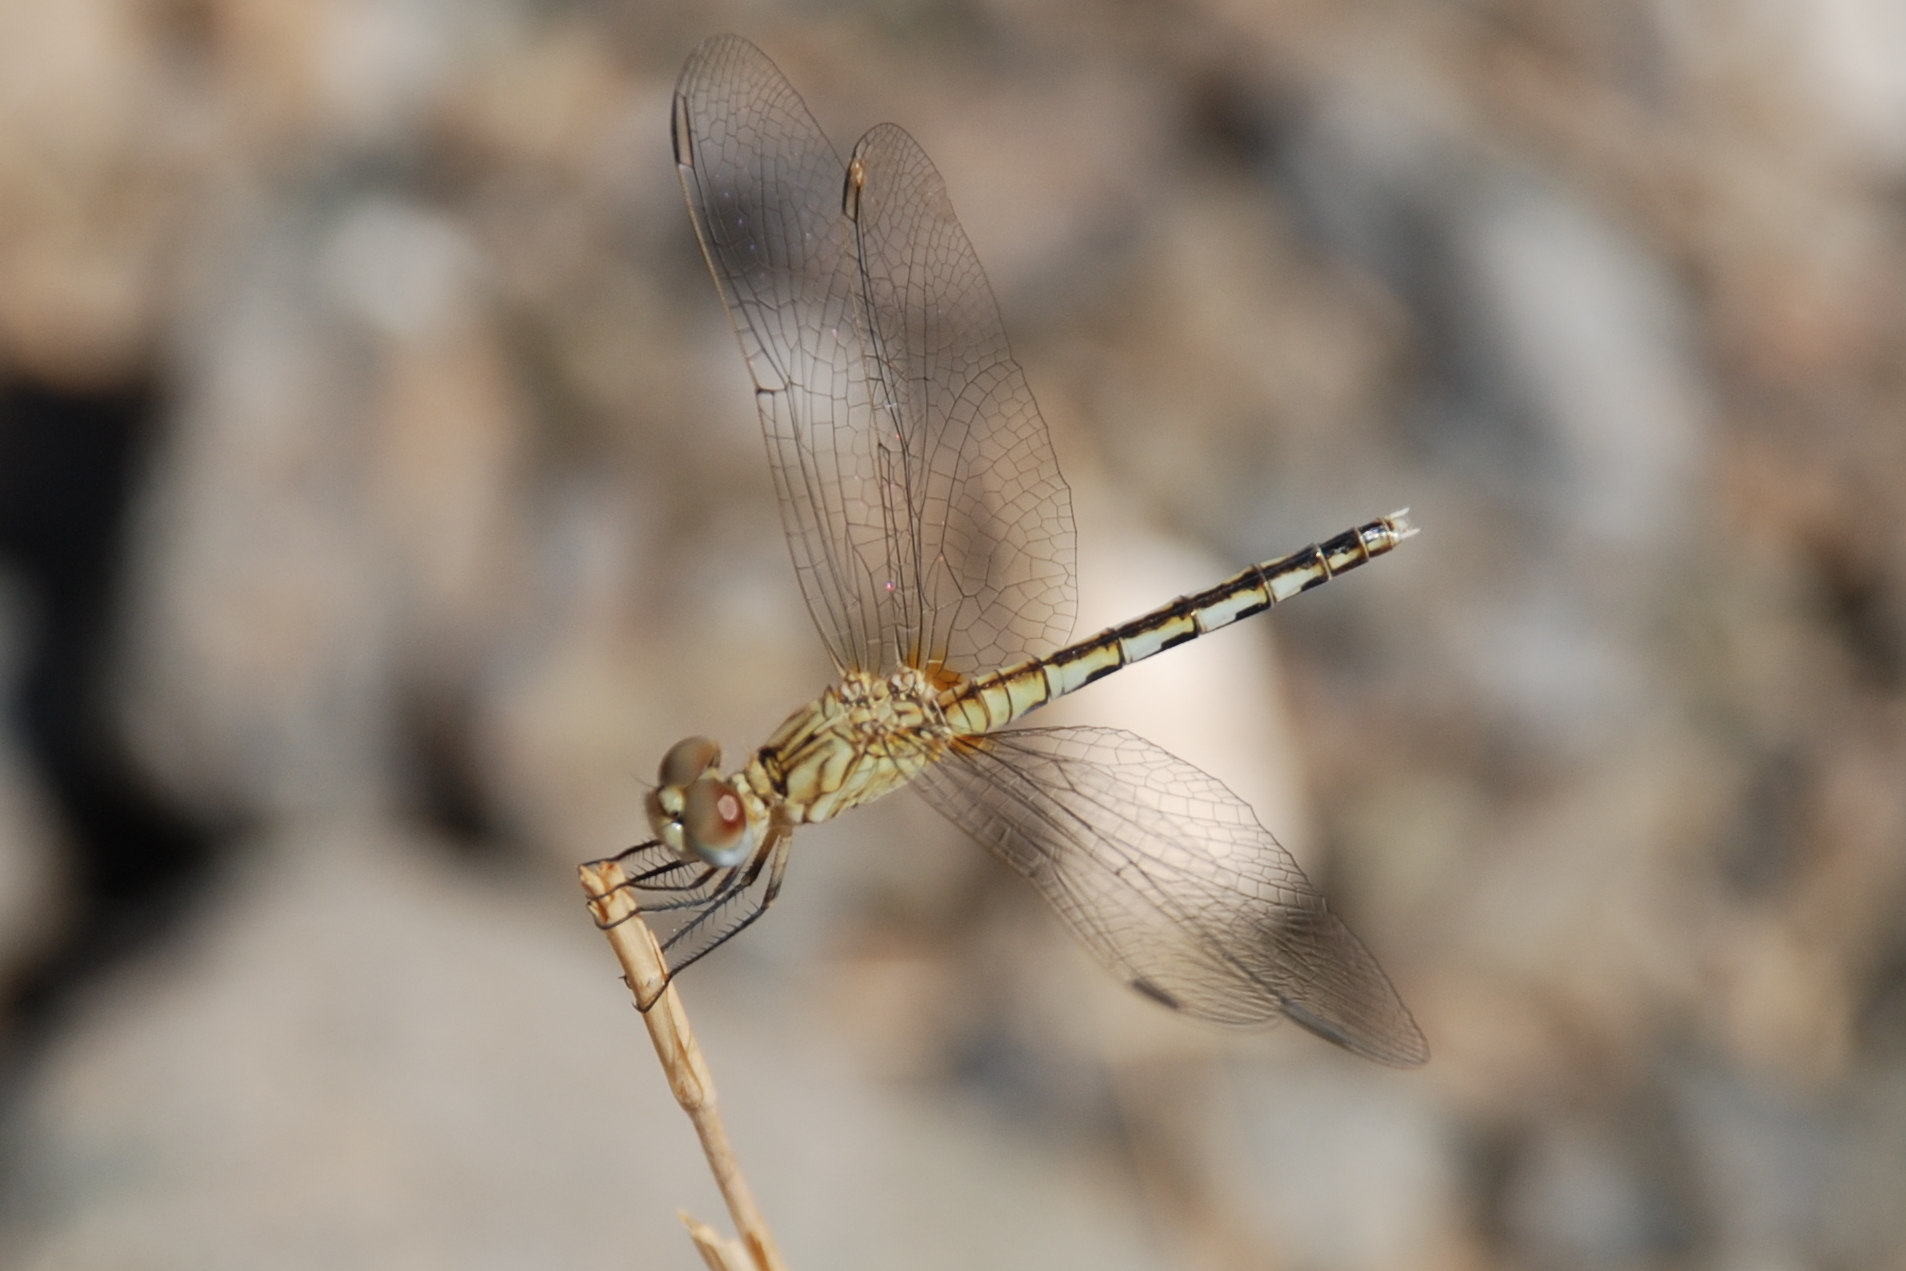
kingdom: Animalia
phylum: Arthropoda
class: Insecta
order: Odonata
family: Libellulidae
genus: Diplacodes
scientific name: Diplacodes lefebvrii
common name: Black percher
